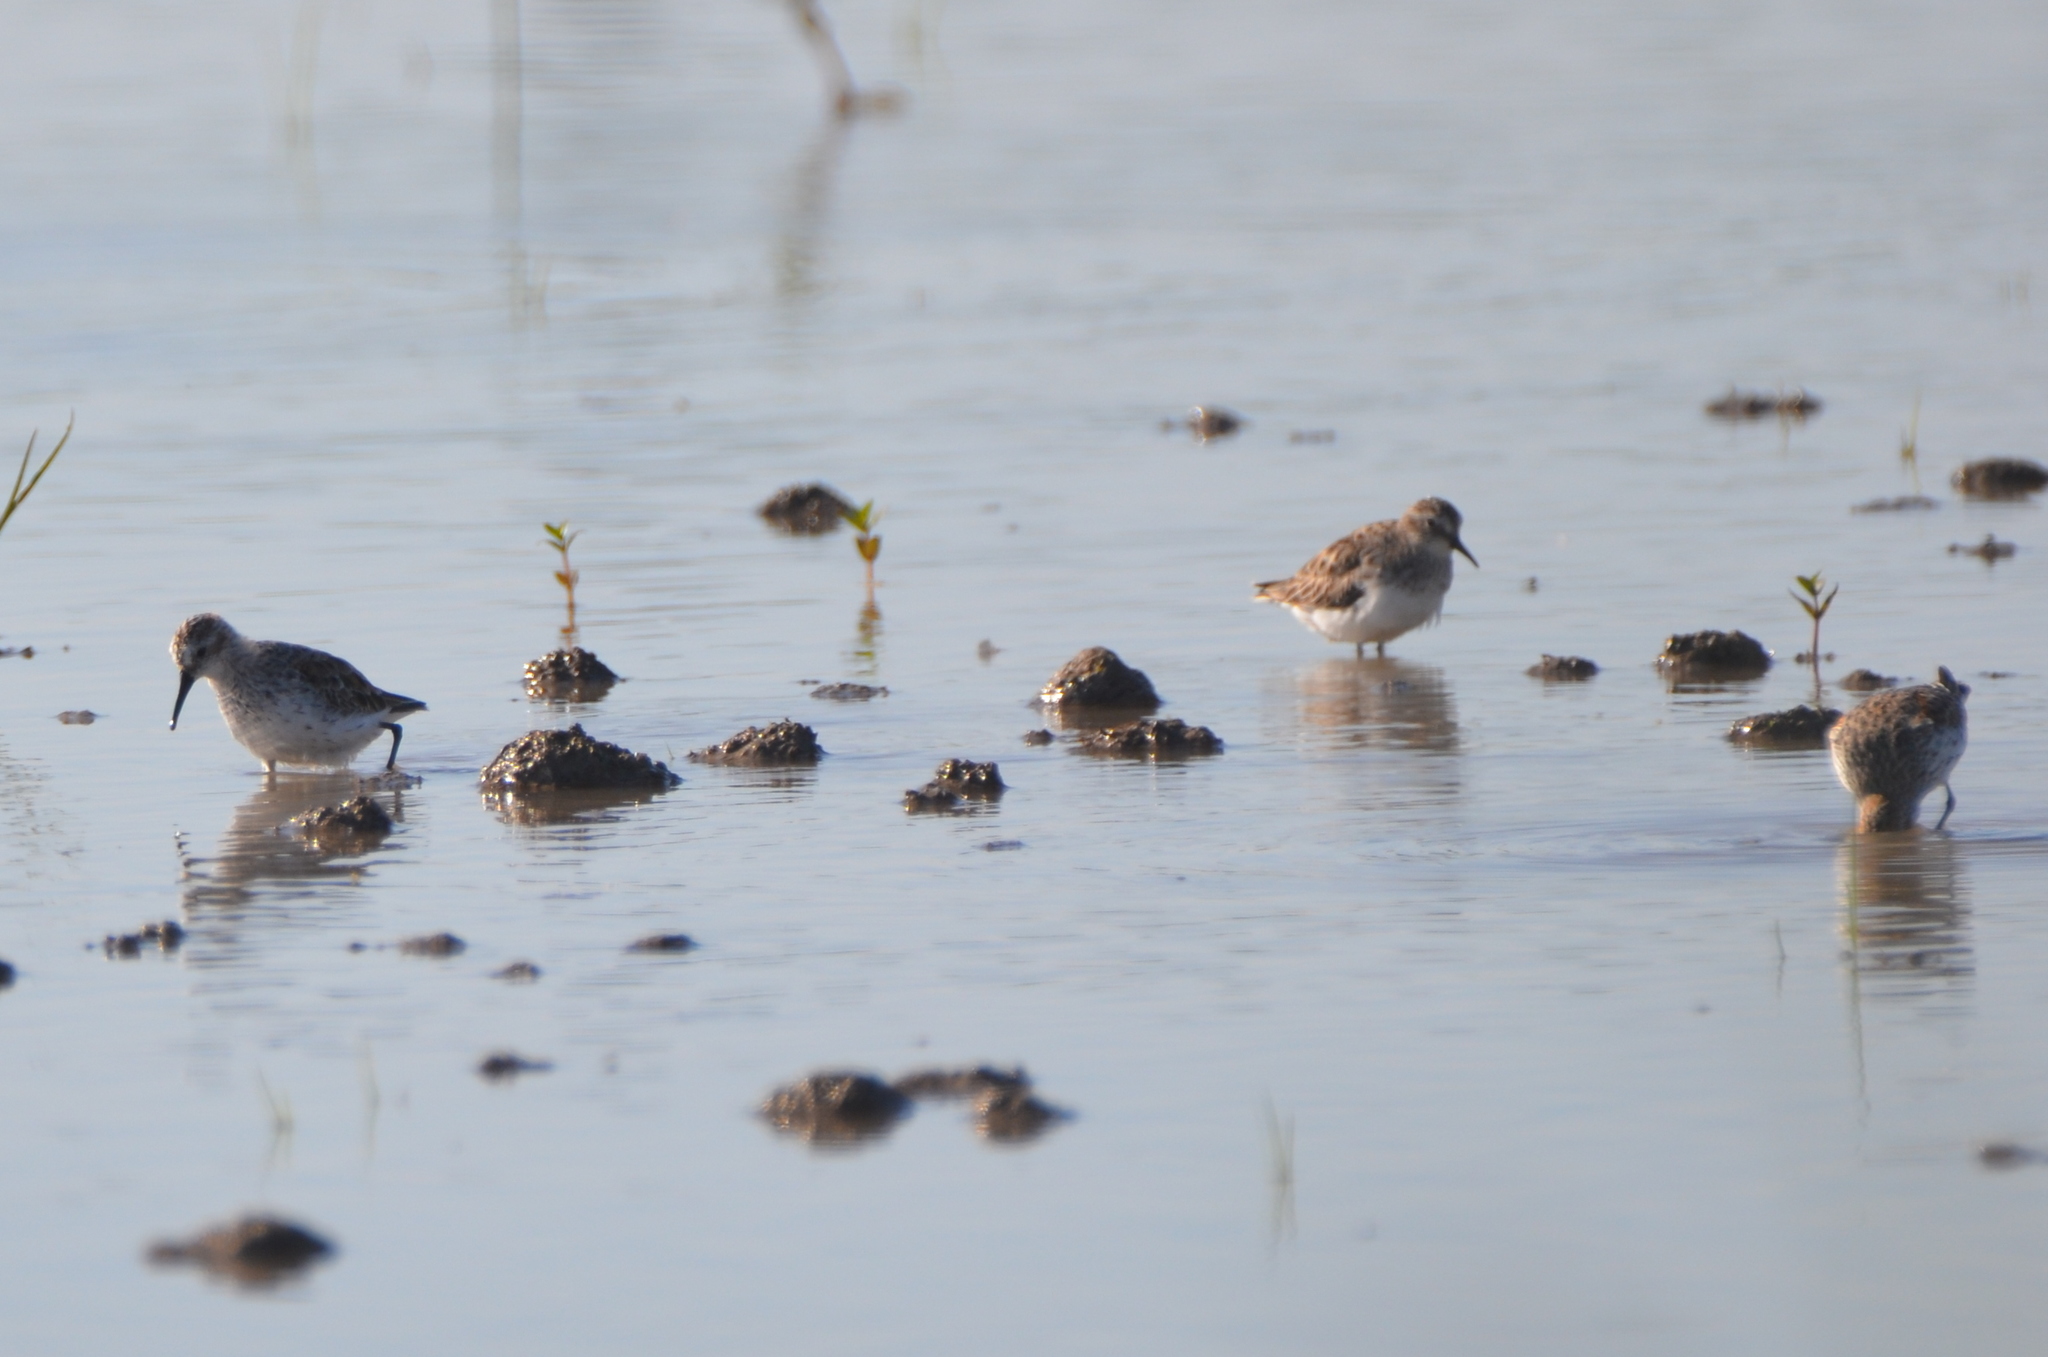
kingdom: Animalia
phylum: Chordata
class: Aves
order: Charadriiformes
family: Scolopacidae
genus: Calidris
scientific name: Calidris mauri
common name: Western sandpiper
